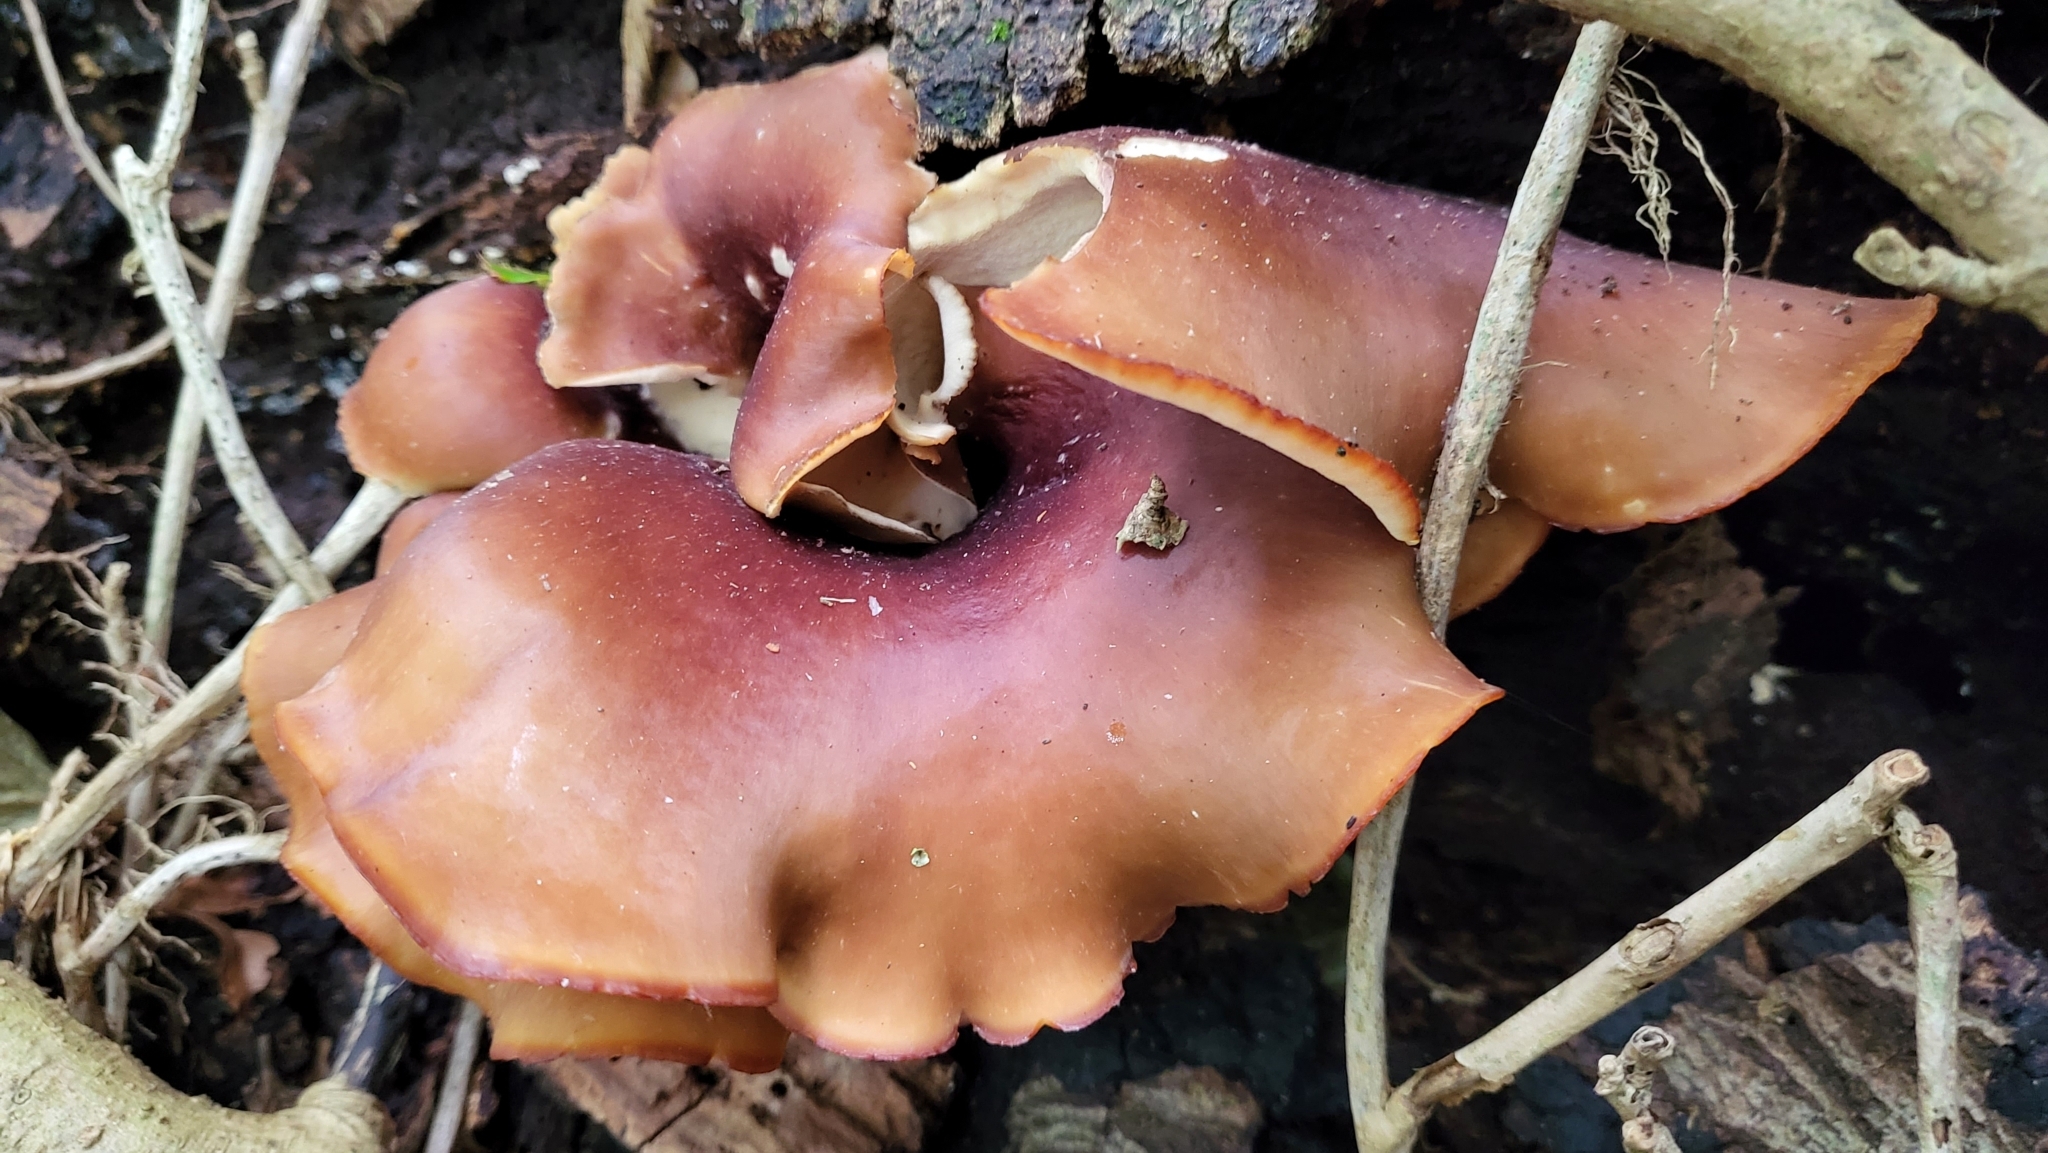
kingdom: Fungi
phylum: Basidiomycota
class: Agaricomycetes
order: Polyporales
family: Polyporaceae
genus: Picipes
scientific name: Picipes badius
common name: Bay polypore
